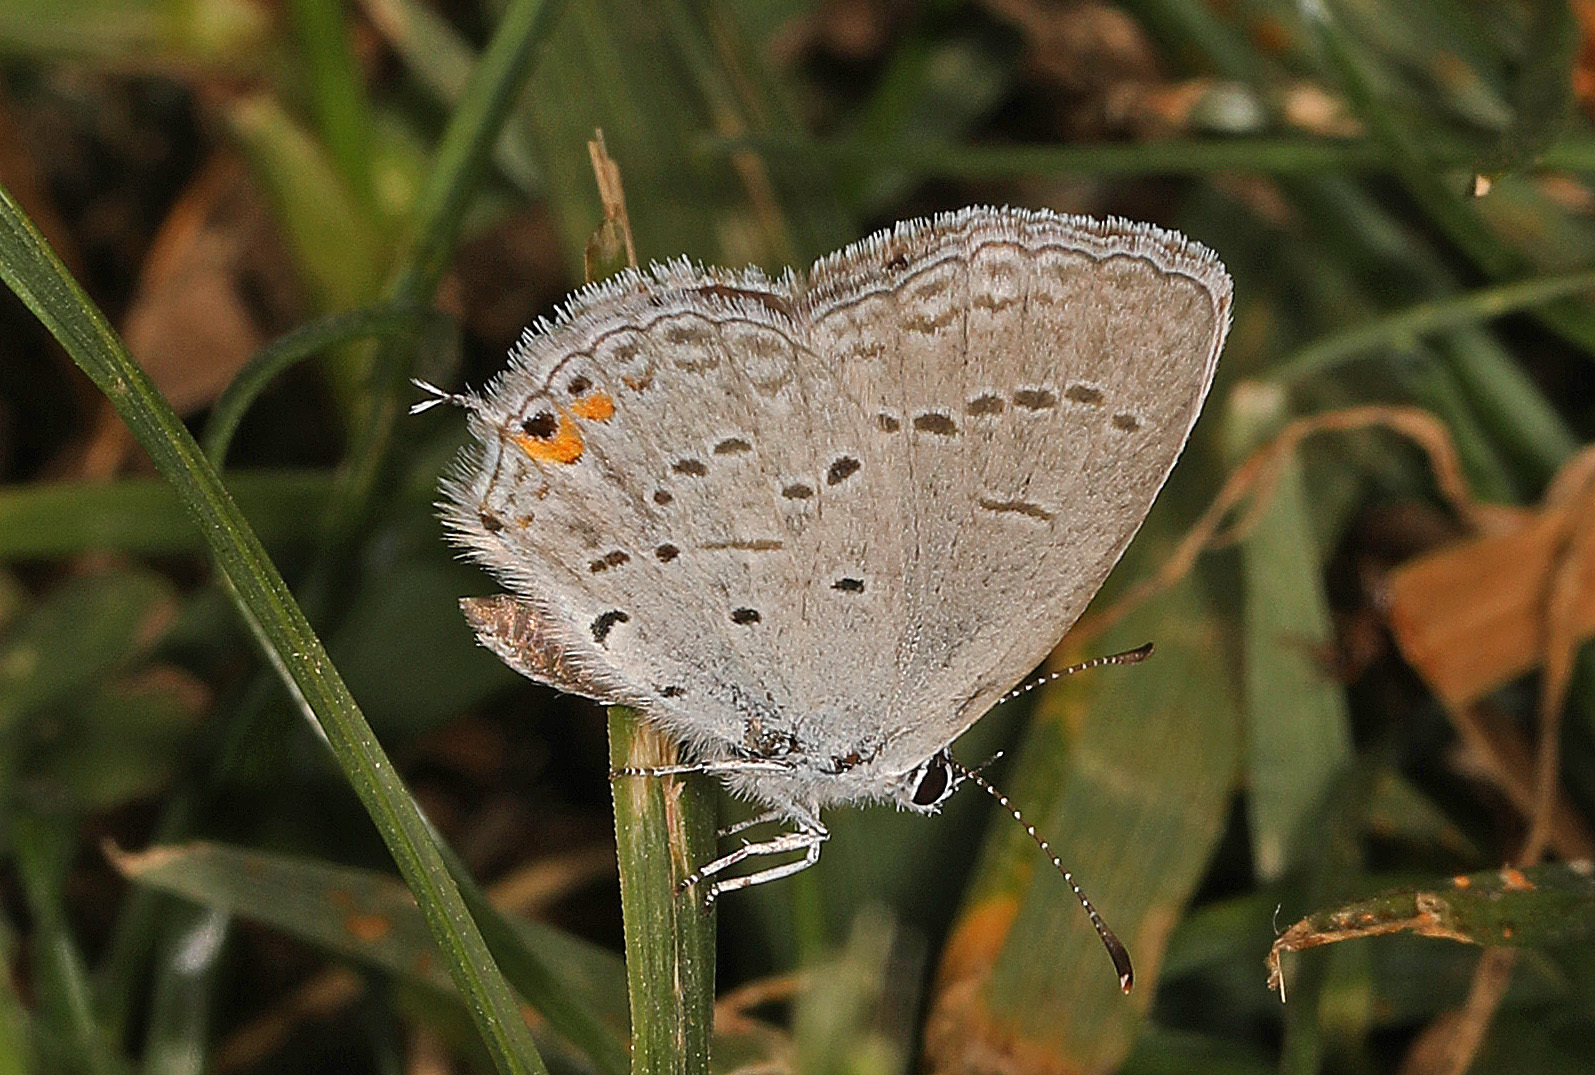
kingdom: Animalia
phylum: Arthropoda
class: Insecta
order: Lepidoptera
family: Lycaenidae
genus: Elkalyce
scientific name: Elkalyce comyntas
